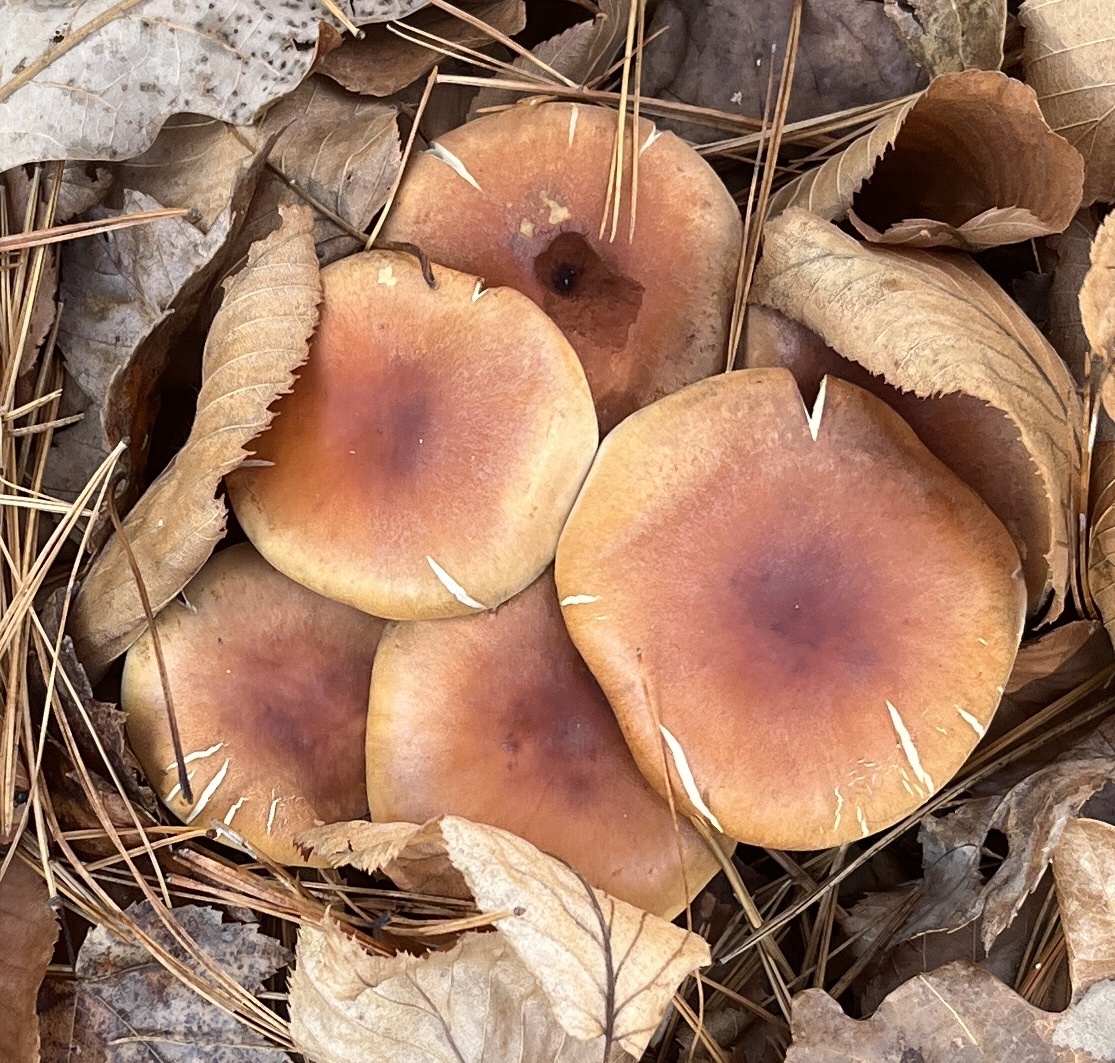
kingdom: Fungi
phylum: Basidiomycota
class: Agaricomycetes
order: Agaricales
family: Strophariaceae
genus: Hypholoma
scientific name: Hypholoma lateritium
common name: Brick caps
